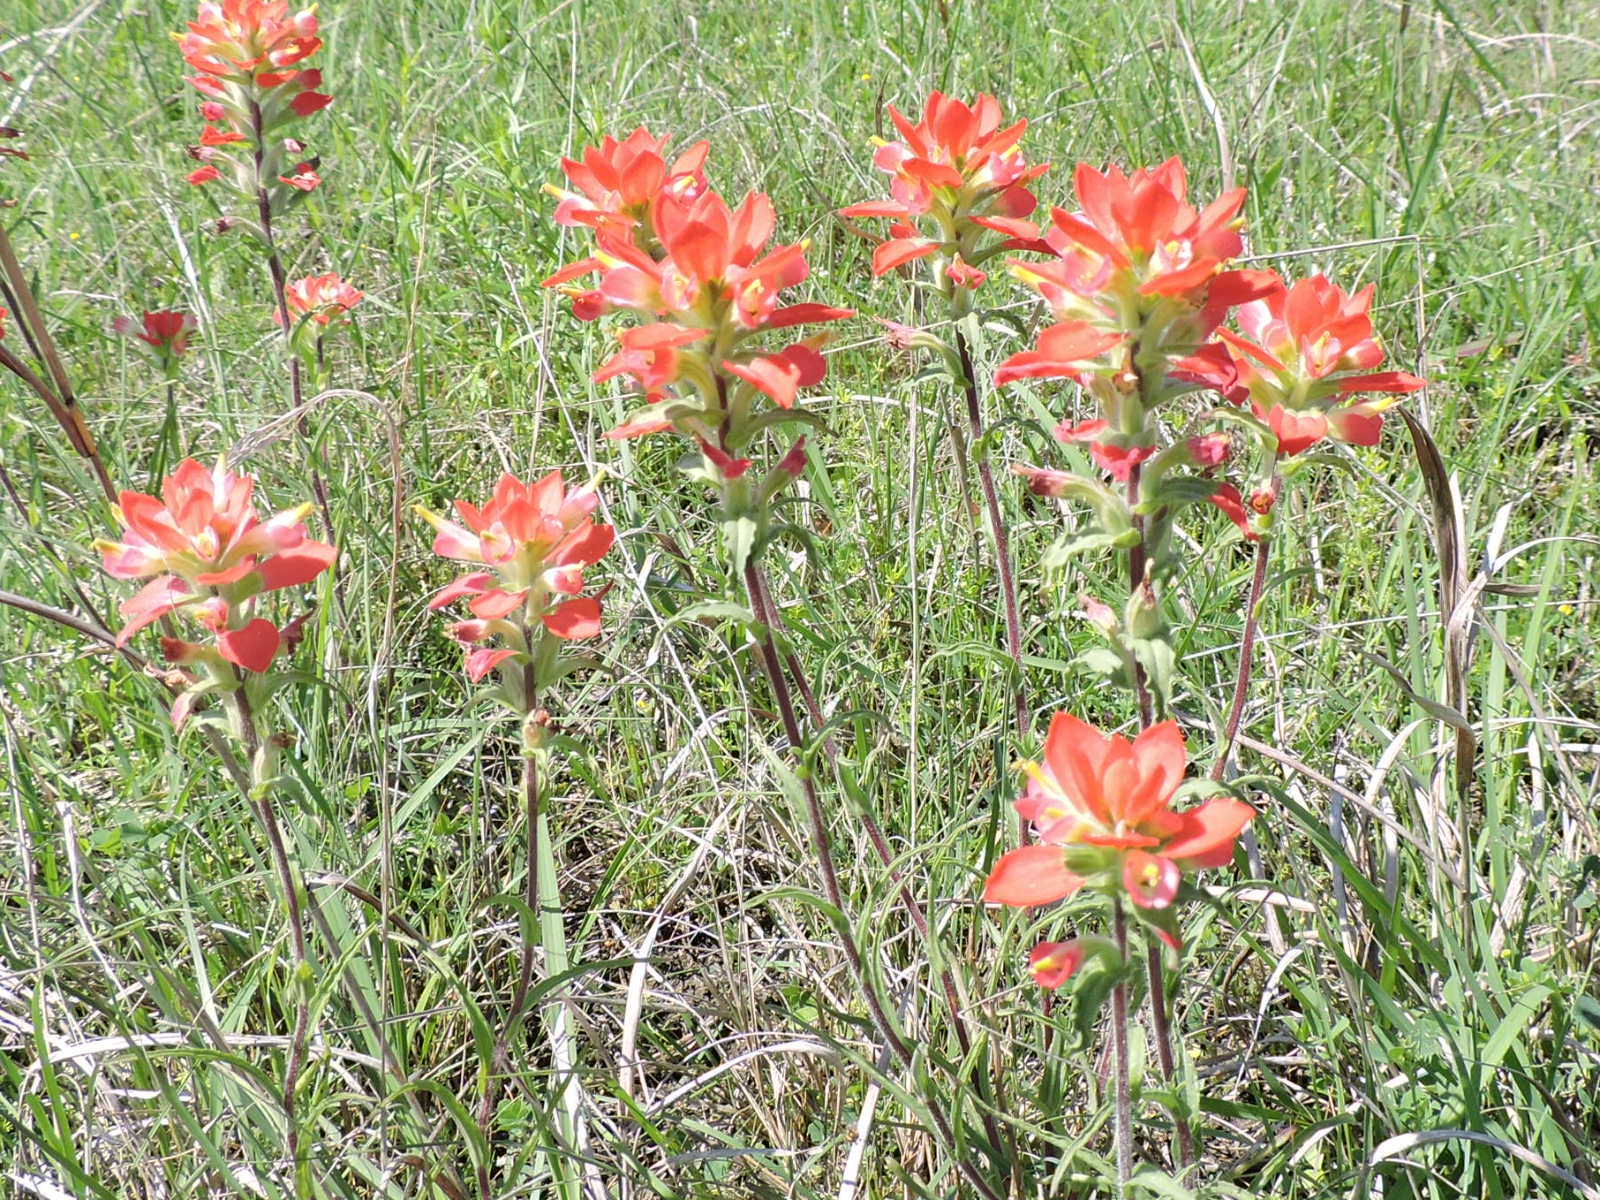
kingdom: Plantae
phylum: Tracheophyta
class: Magnoliopsida
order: Lamiales
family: Orobanchaceae
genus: Castilleja
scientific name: Castilleja indivisa
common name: Texas paintbrush
